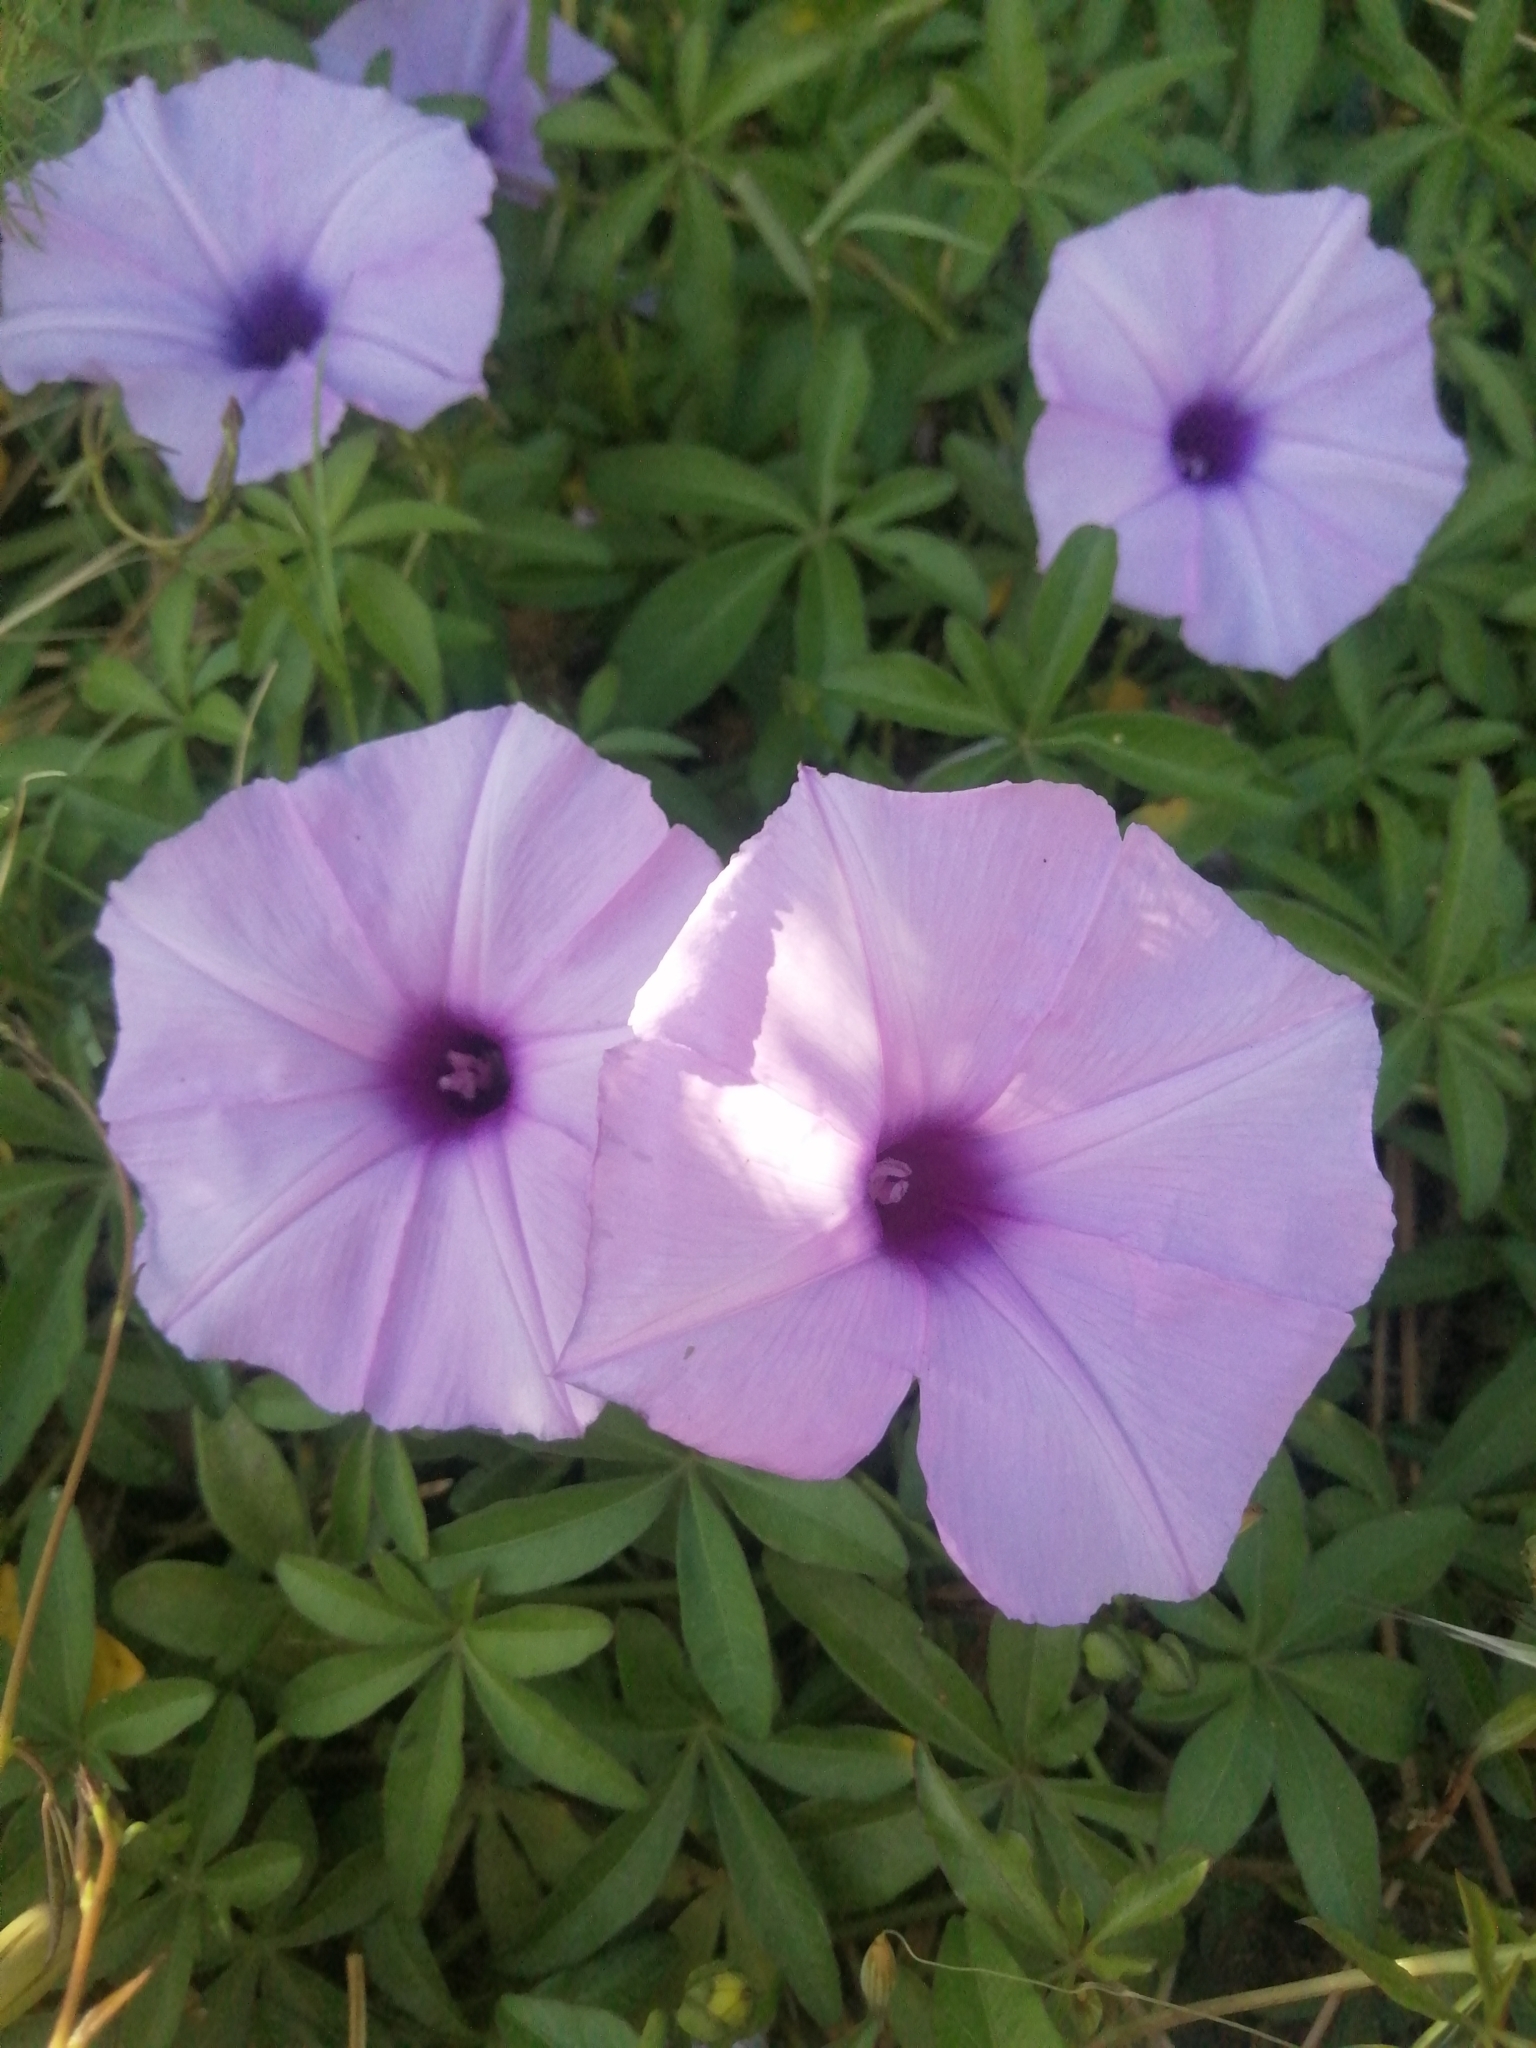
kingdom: Plantae
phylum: Tracheophyta
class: Magnoliopsida
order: Solanales
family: Convolvulaceae
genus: Ipomoea
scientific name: Ipomoea cairica
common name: Mile a minute vine
